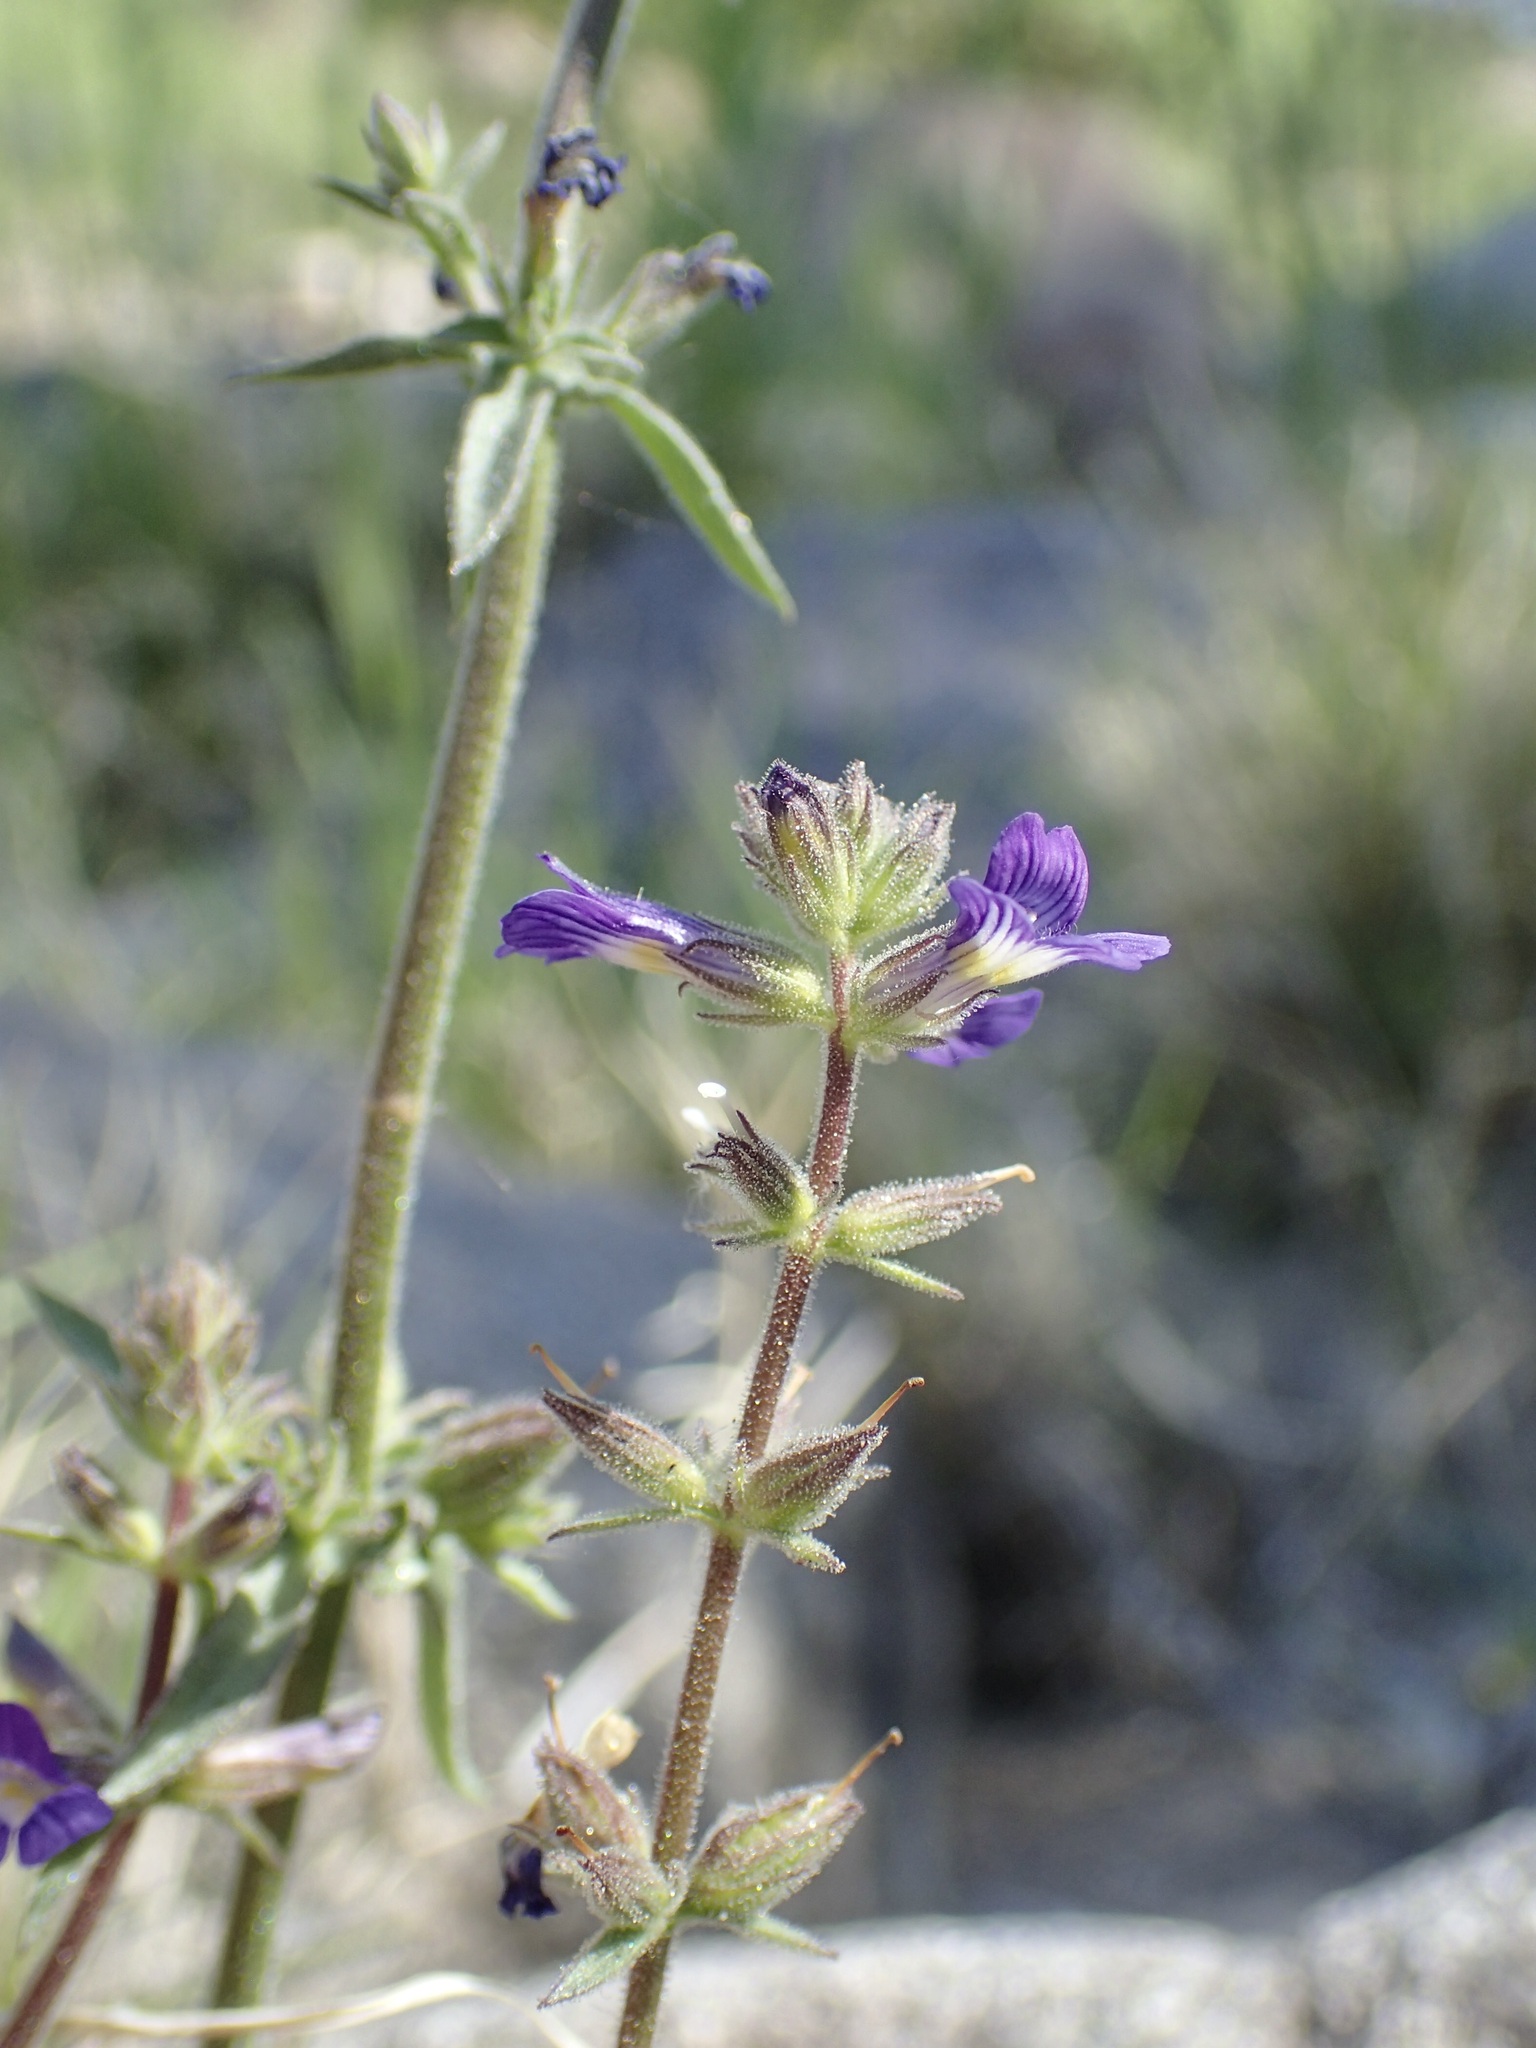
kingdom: Plantae
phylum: Tracheophyta
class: Magnoliopsida
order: Lamiales
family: Plantaginaceae
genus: Stemodia
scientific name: Stemodia durantifolia
